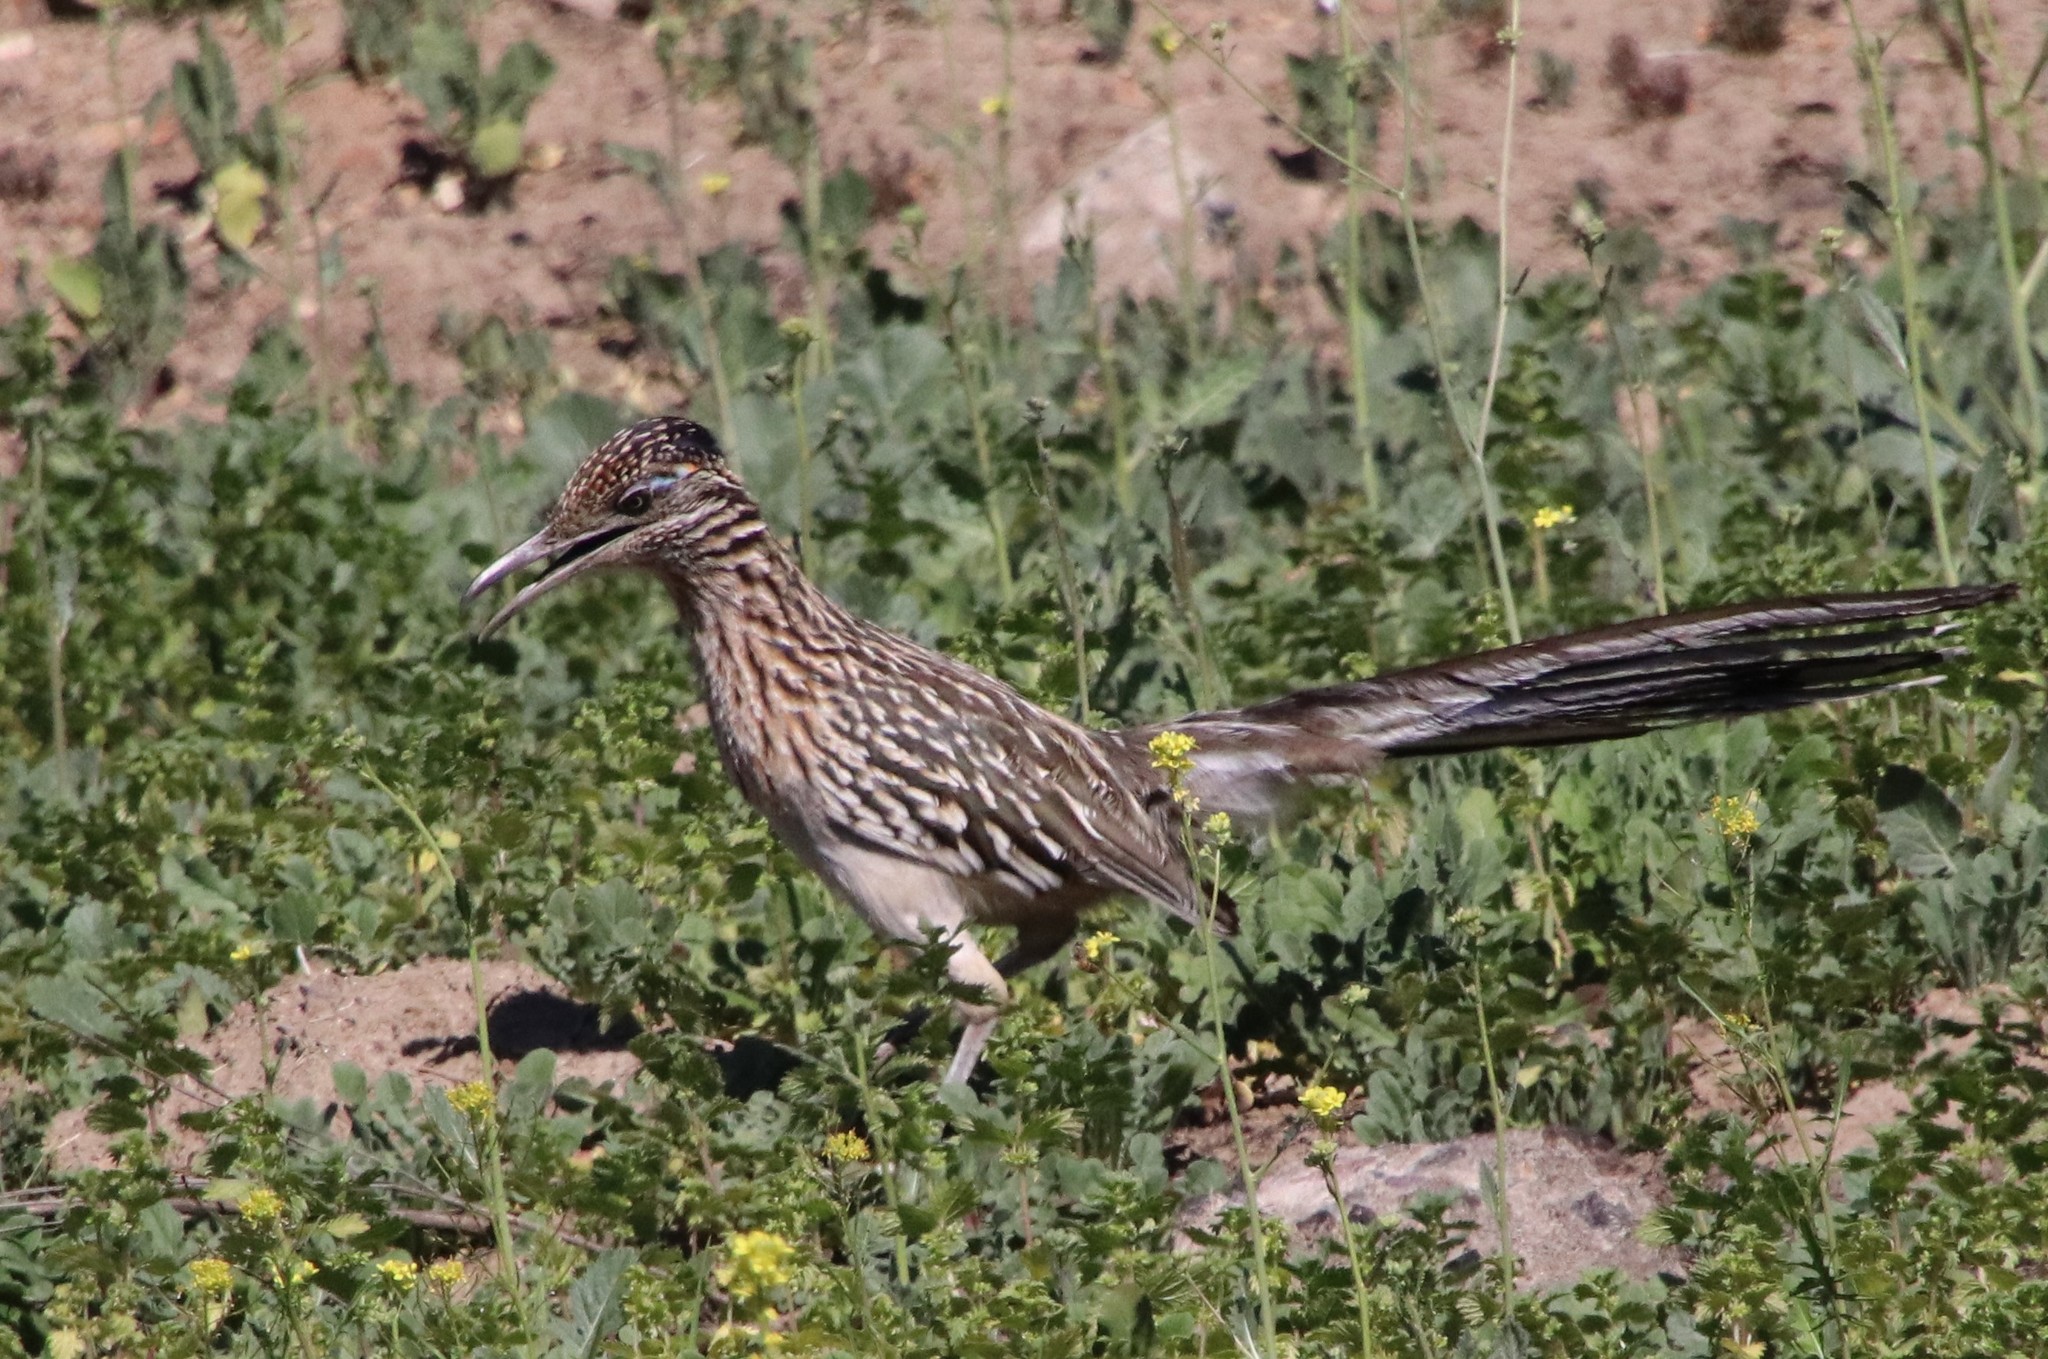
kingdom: Animalia
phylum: Chordata
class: Aves
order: Cuculiformes
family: Cuculidae
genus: Geococcyx
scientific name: Geococcyx californianus
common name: Greater roadrunner
